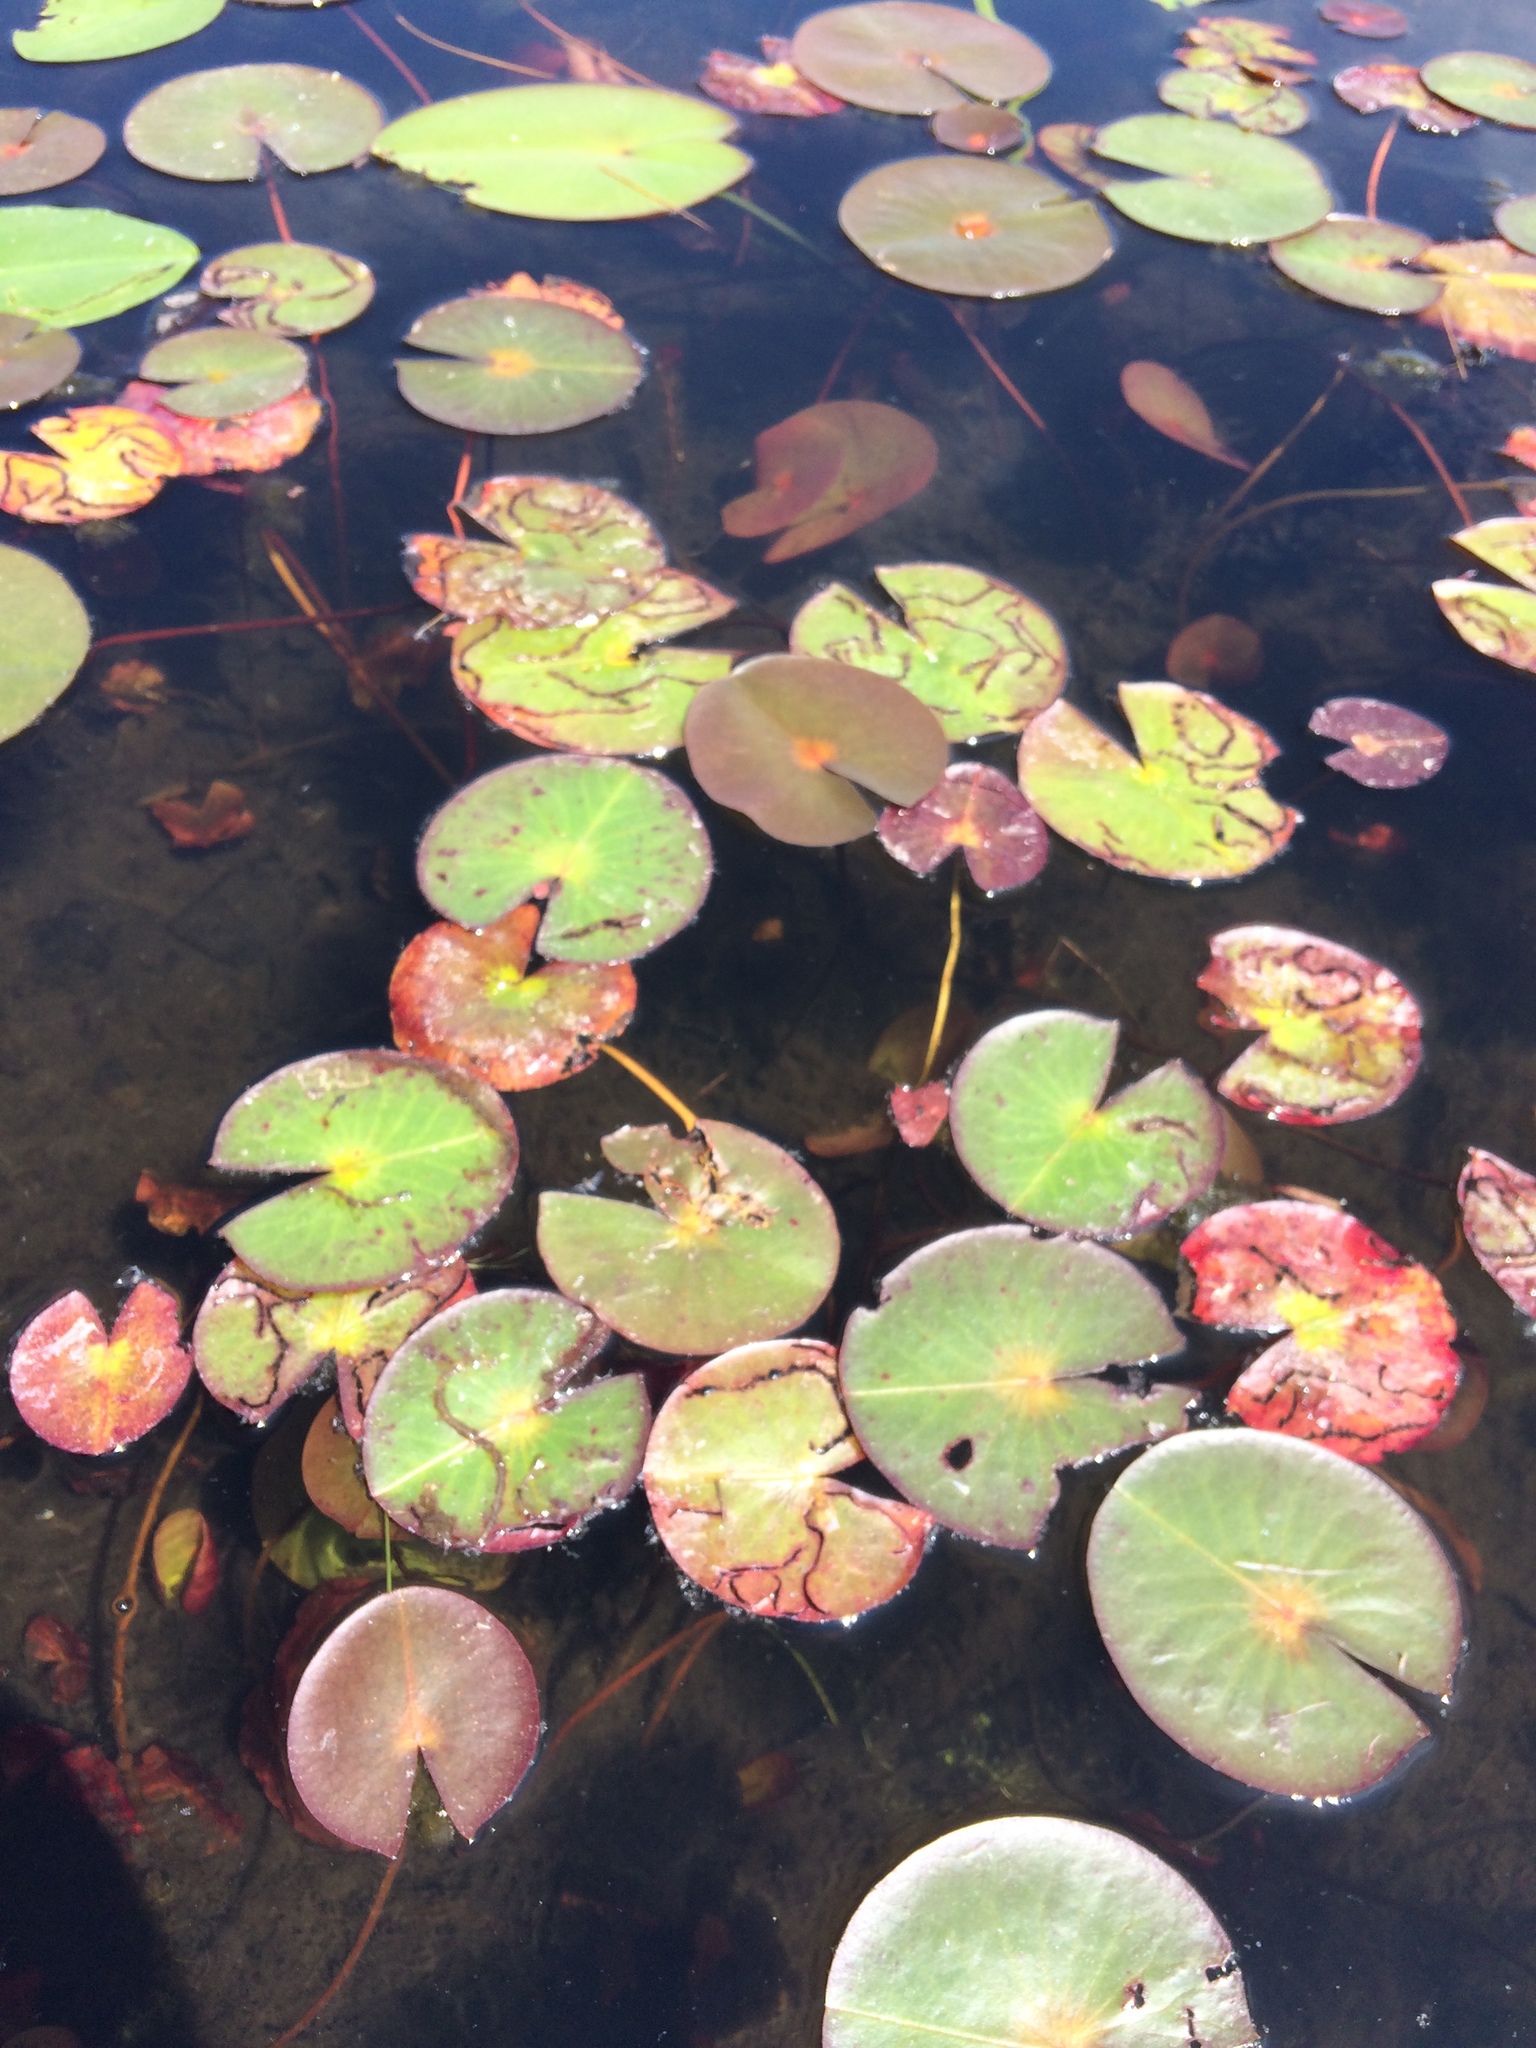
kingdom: Animalia
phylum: Arthropoda
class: Insecta
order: Diptera
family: Chironomidae
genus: Polypedilum
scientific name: Polypedilum braseniae
